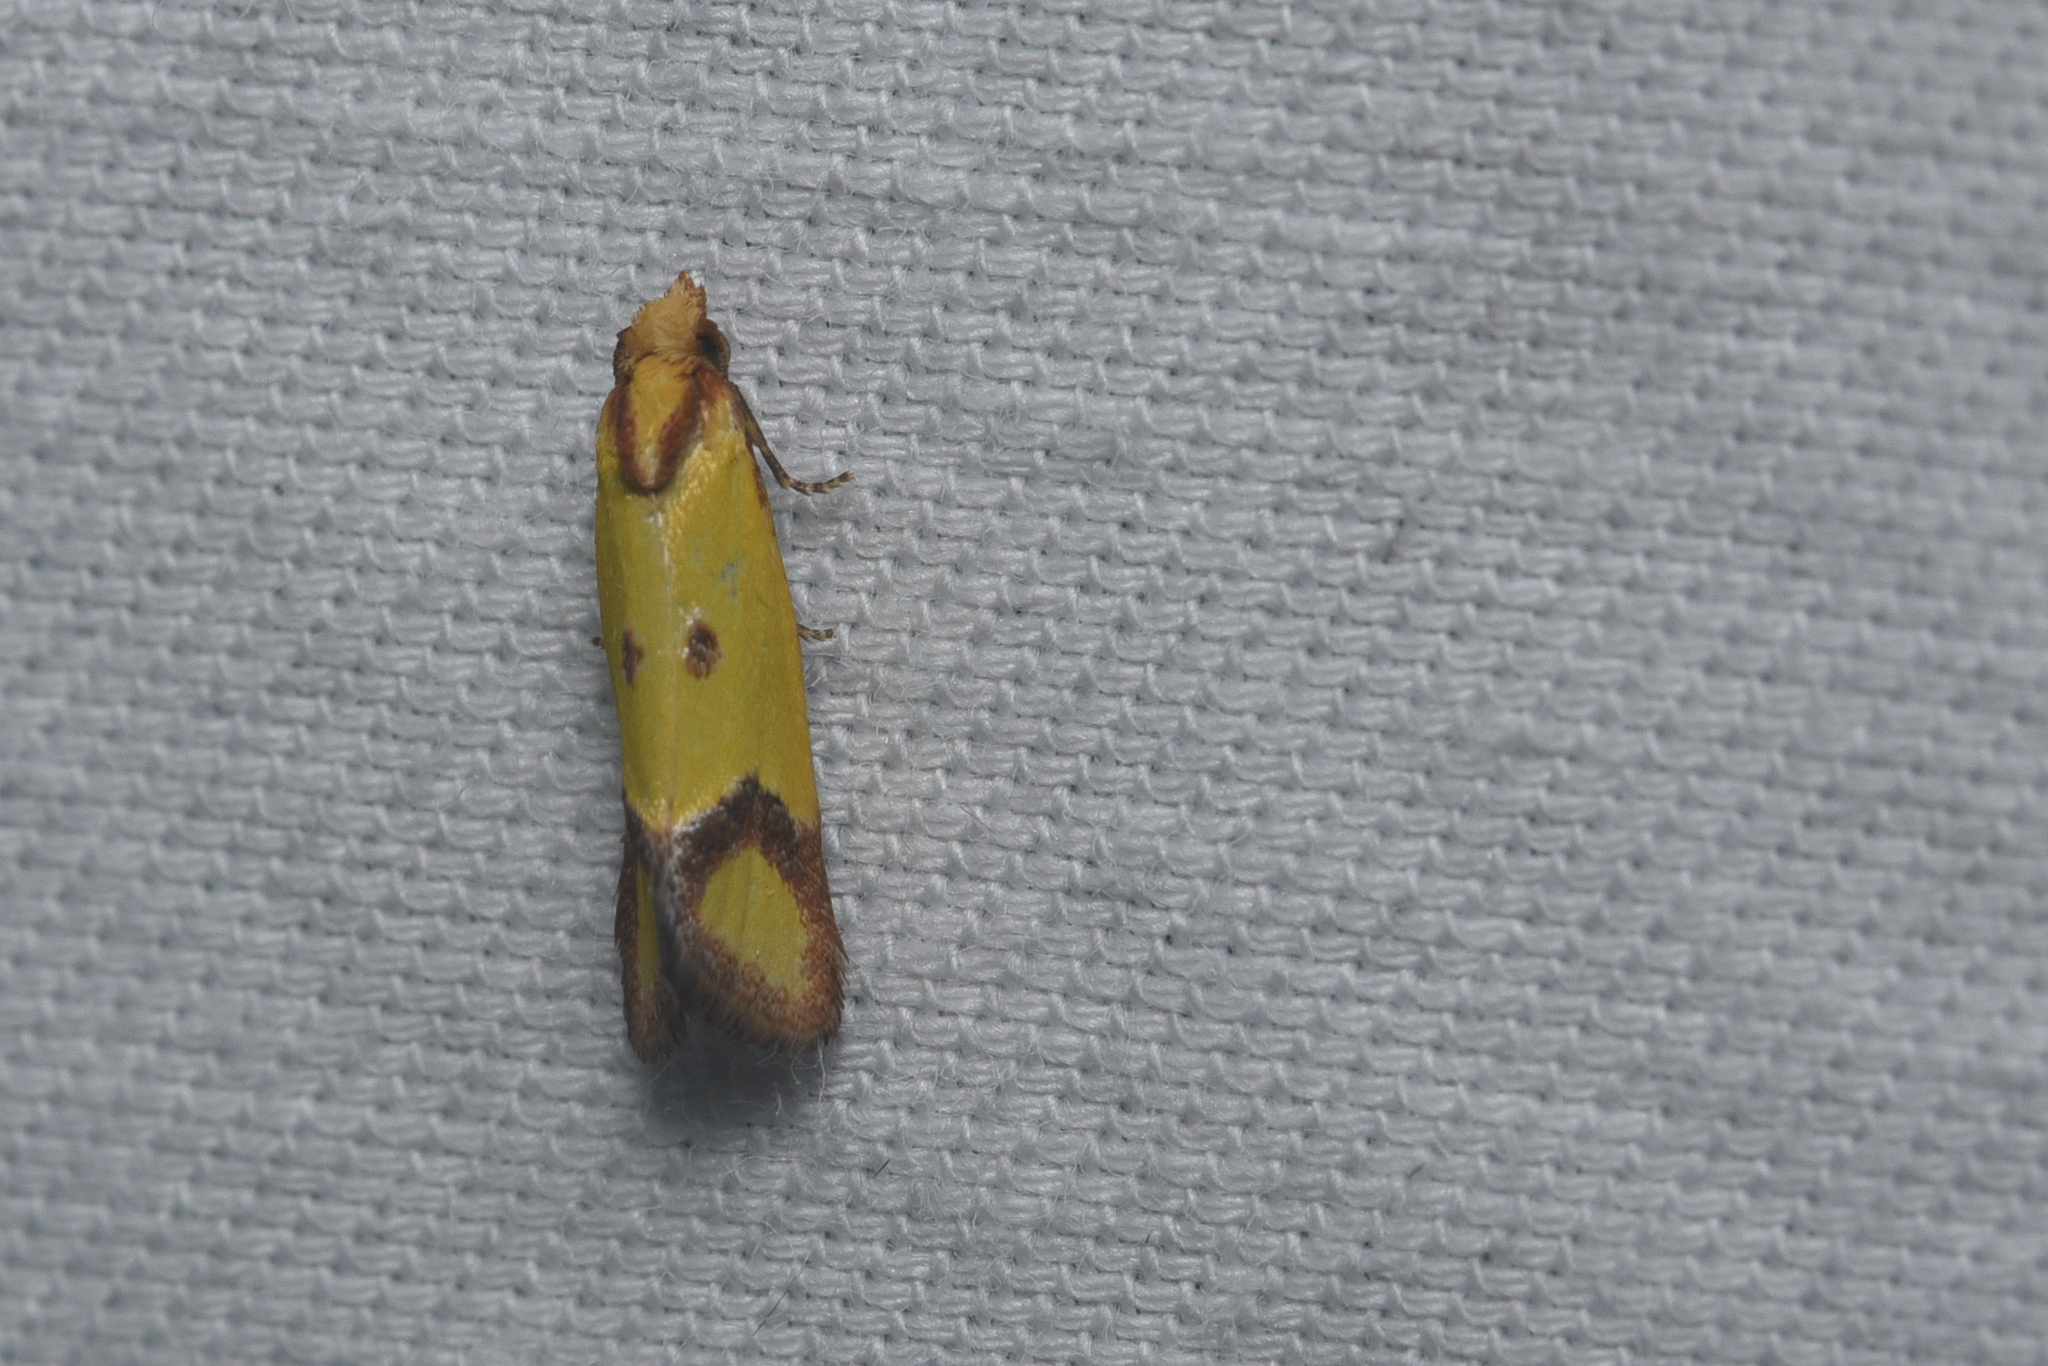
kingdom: Animalia
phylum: Arthropoda
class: Insecta
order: Lepidoptera
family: Tortricidae
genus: Agapeta
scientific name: Agapeta zoegana
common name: Sulfur knapweed root moth
